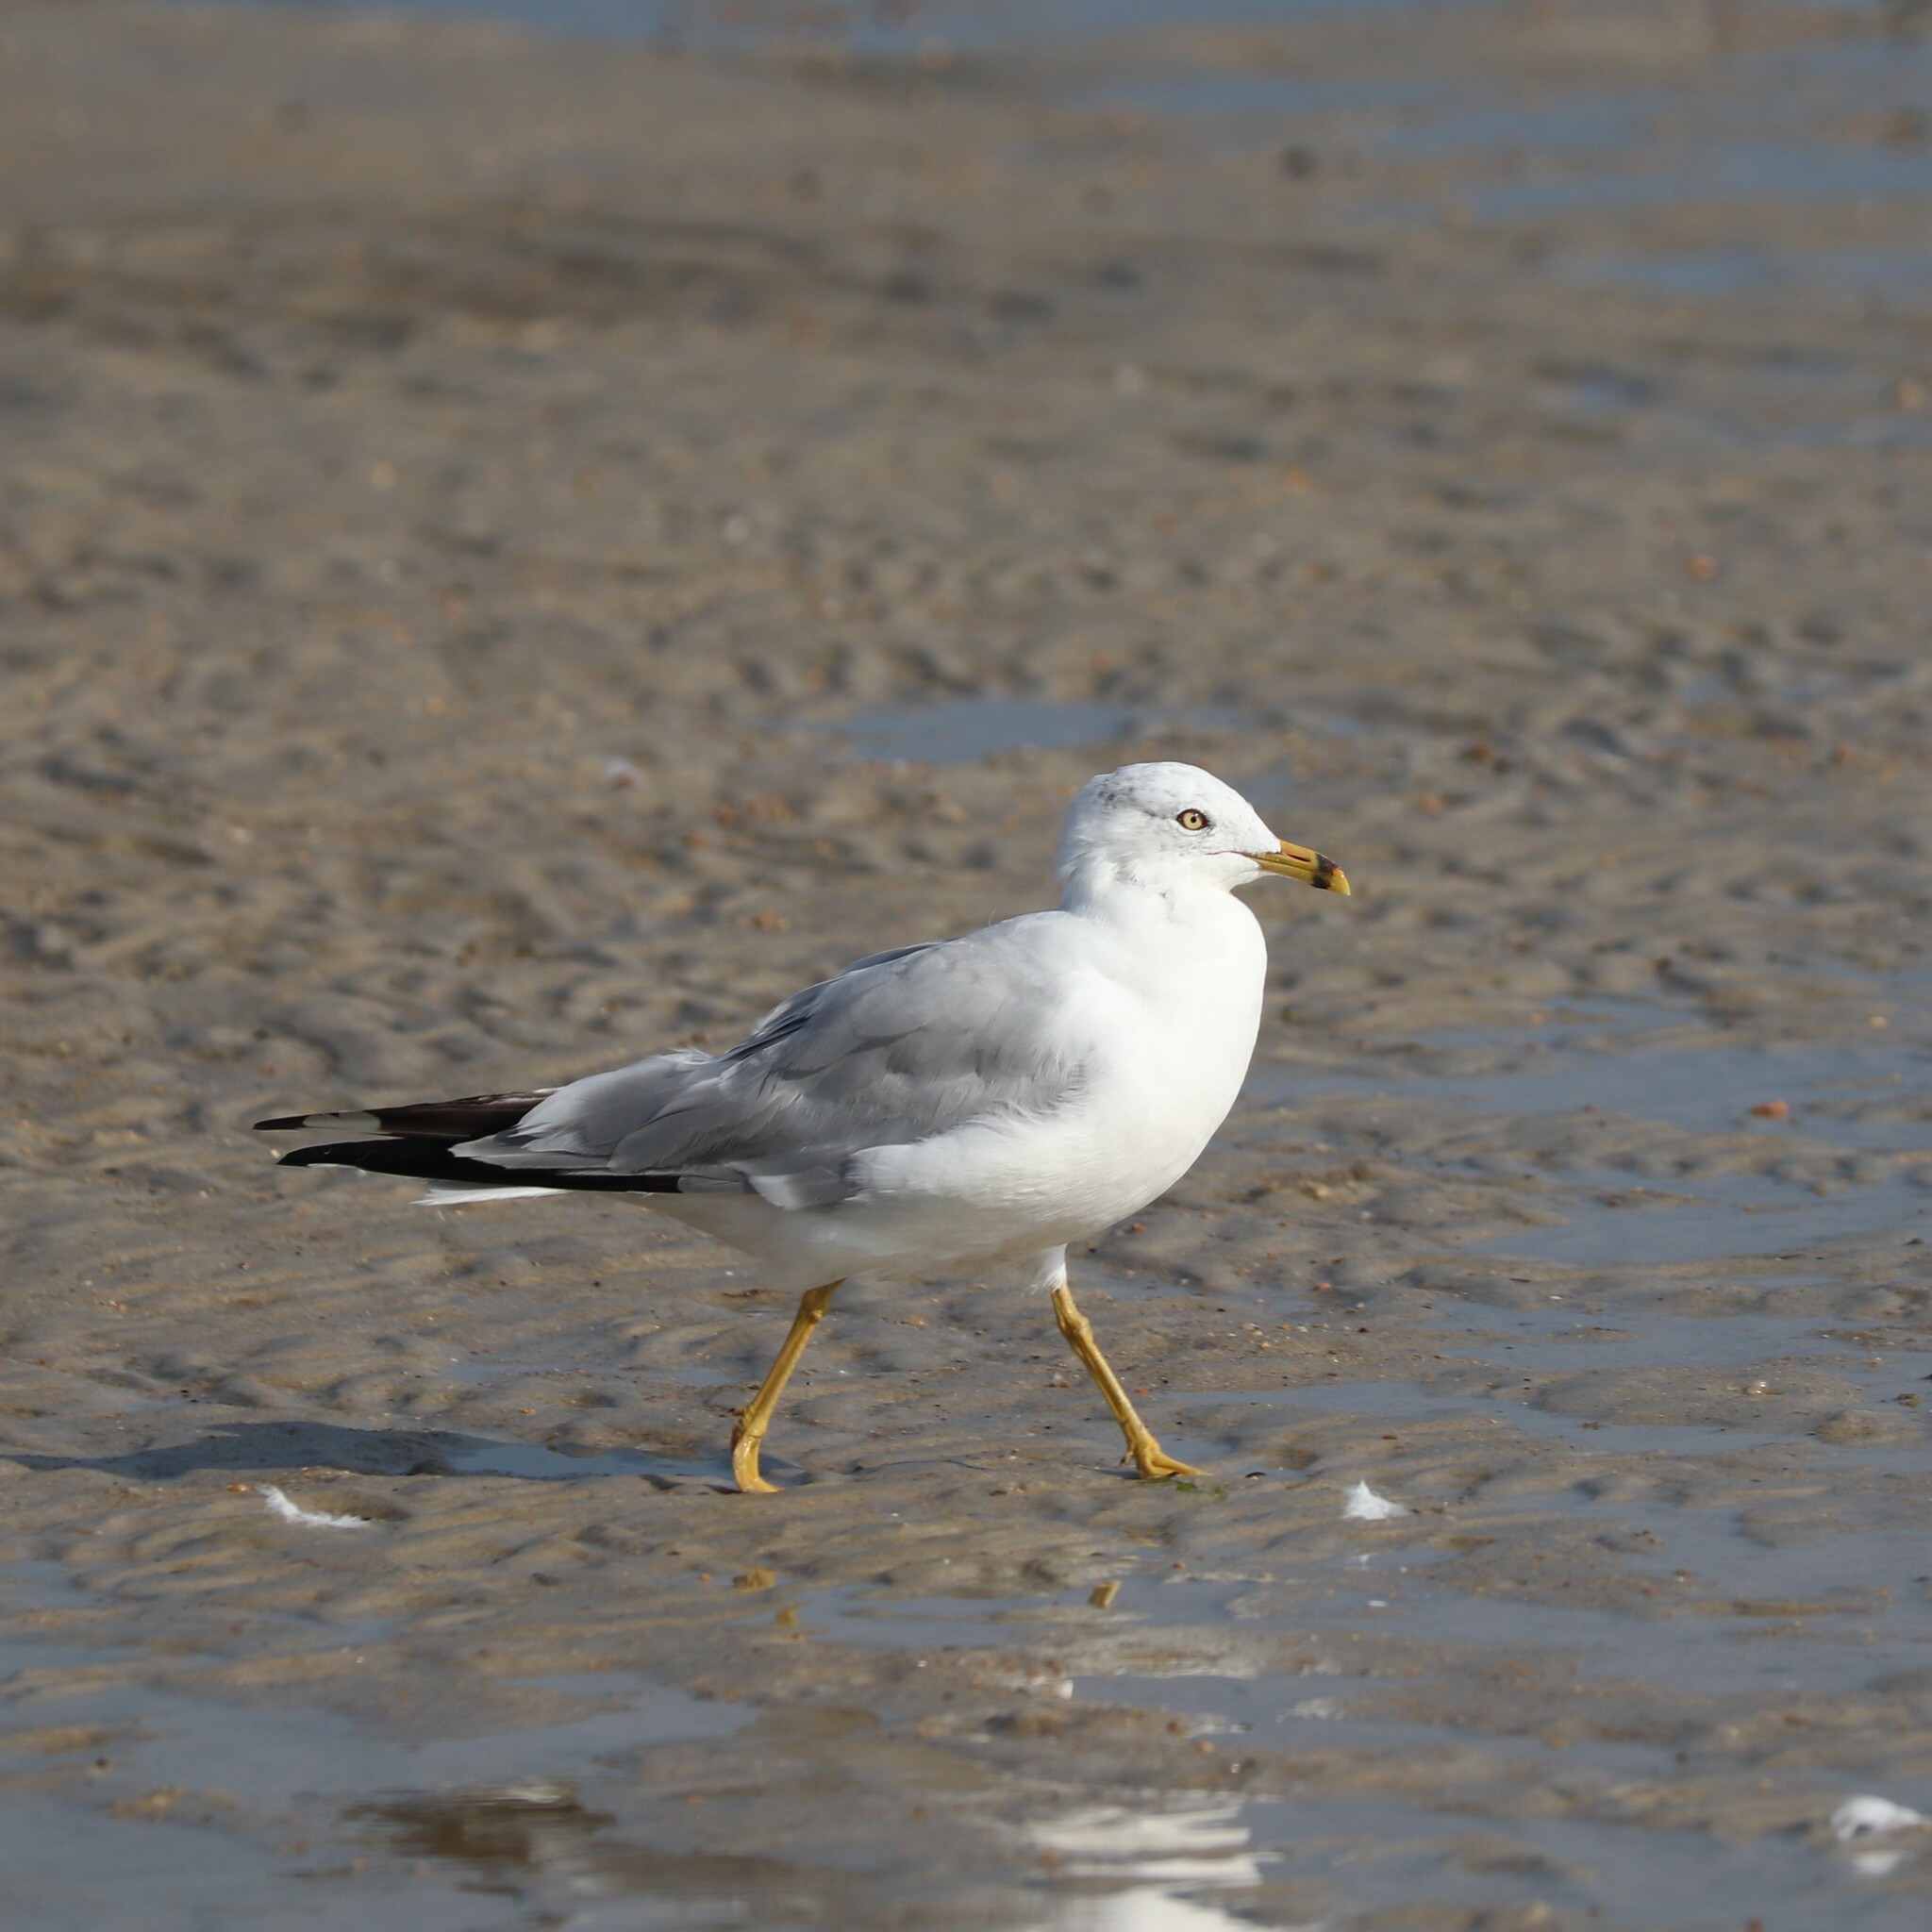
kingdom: Animalia
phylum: Chordata
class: Aves
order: Charadriiformes
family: Laridae
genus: Larus
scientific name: Larus delawarensis
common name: Ring-billed gull
